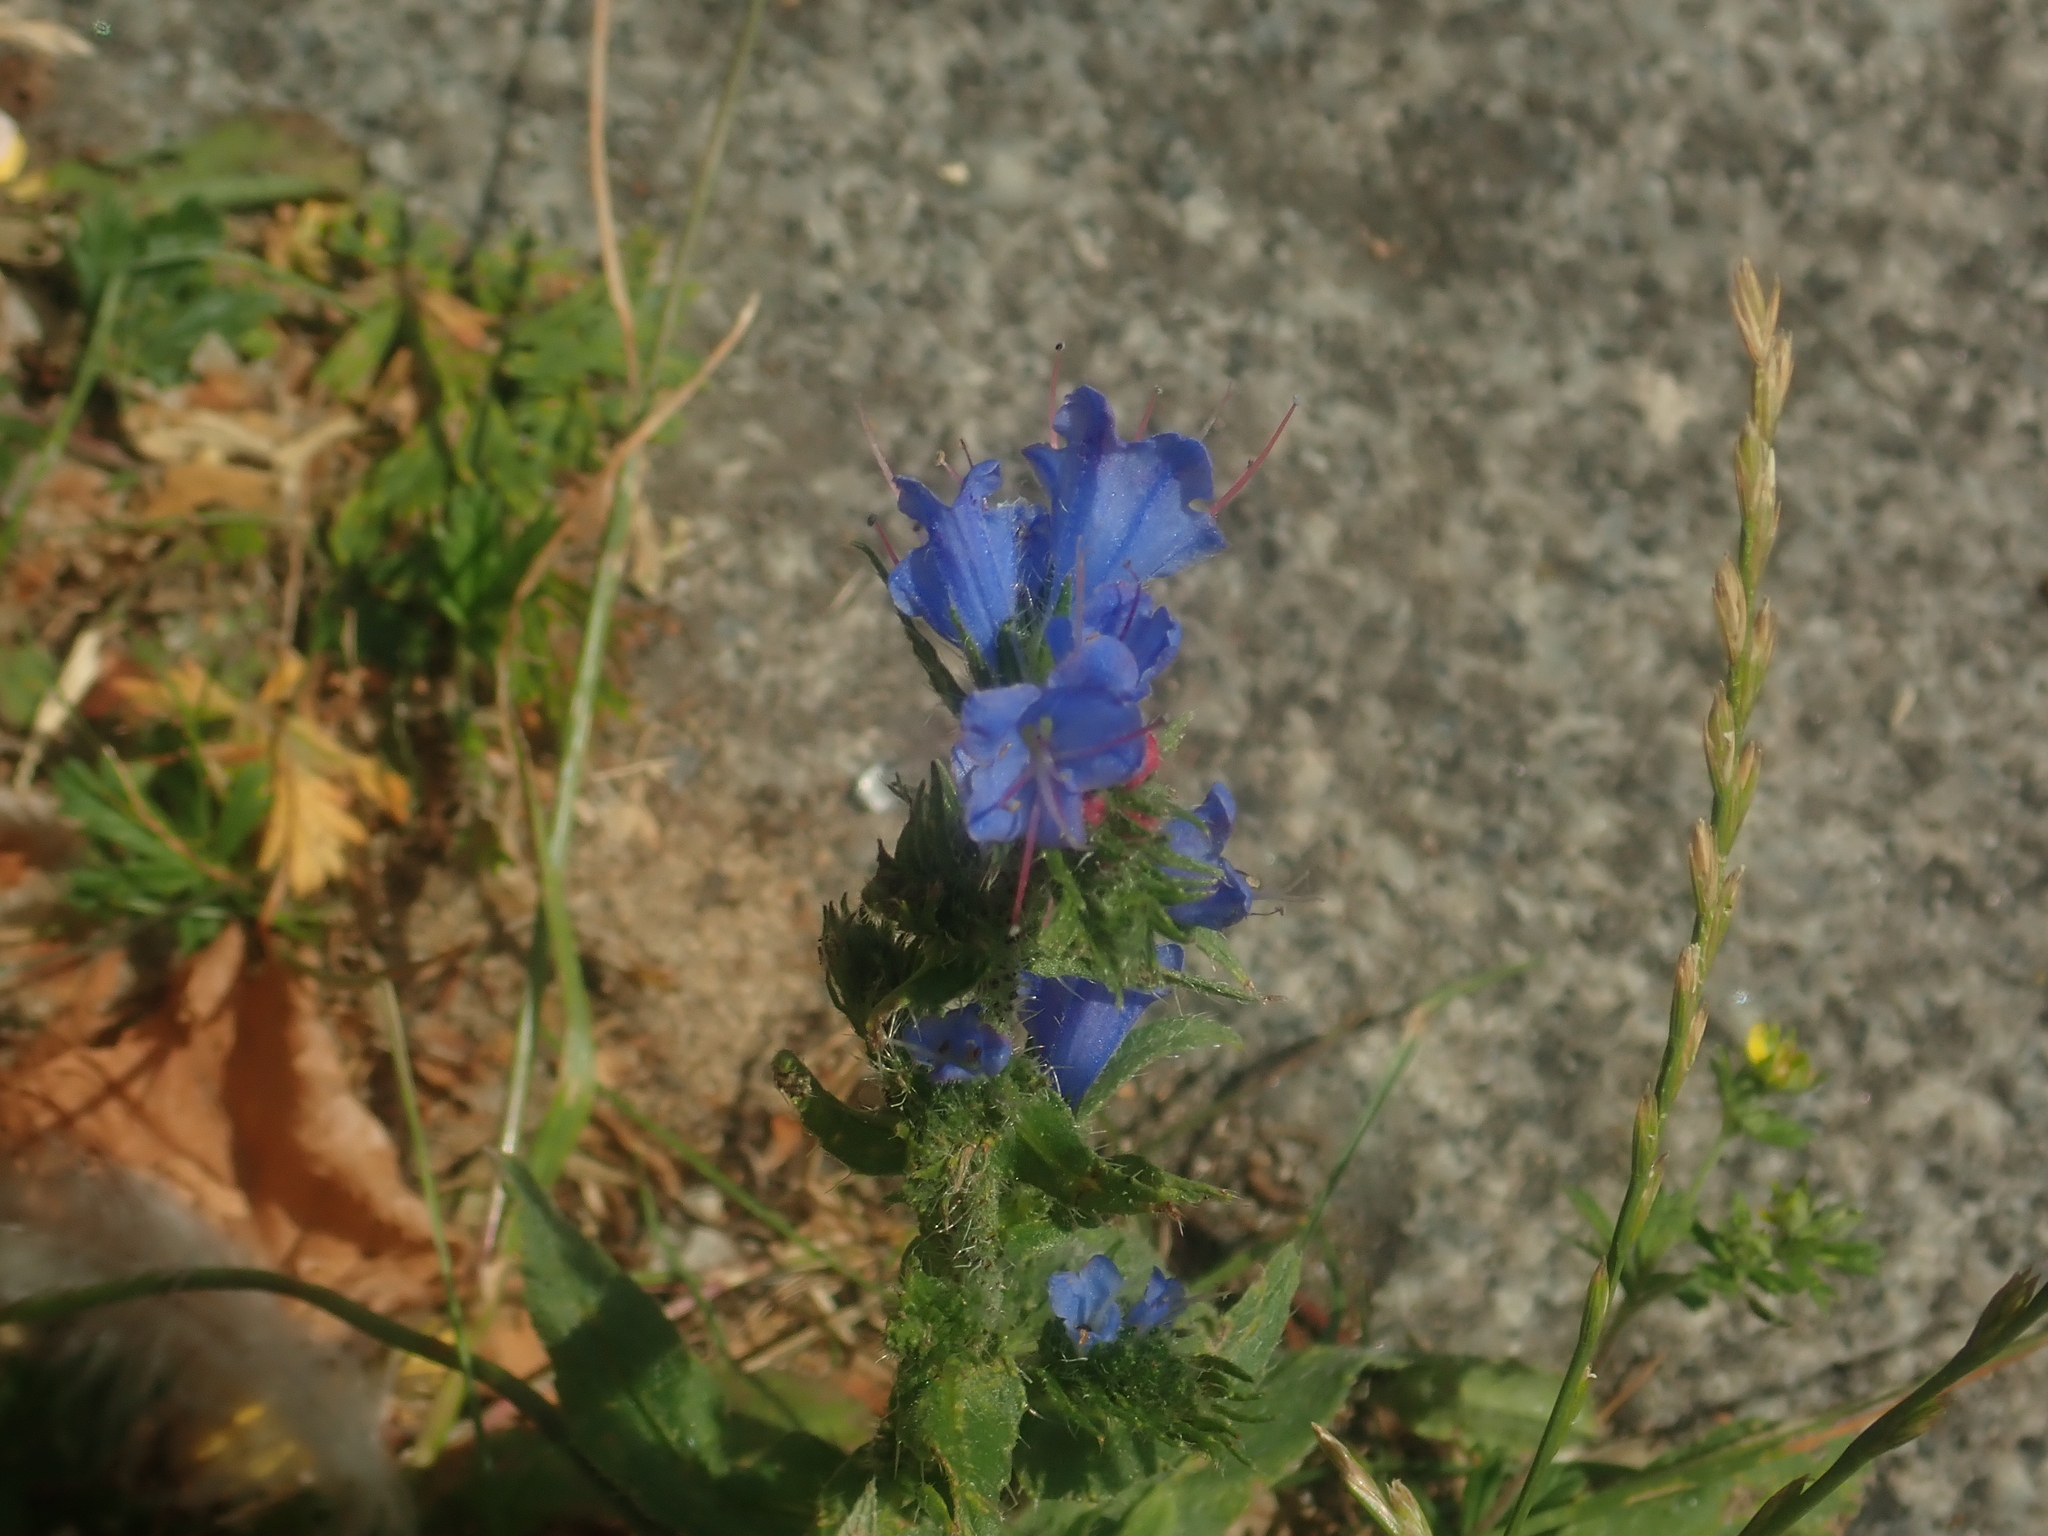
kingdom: Plantae
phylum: Tracheophyta
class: Magnoliopsida
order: Boraginales
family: Boraginaceae
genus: Echium
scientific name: Echium vulgare
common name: Common viper's bugloss
